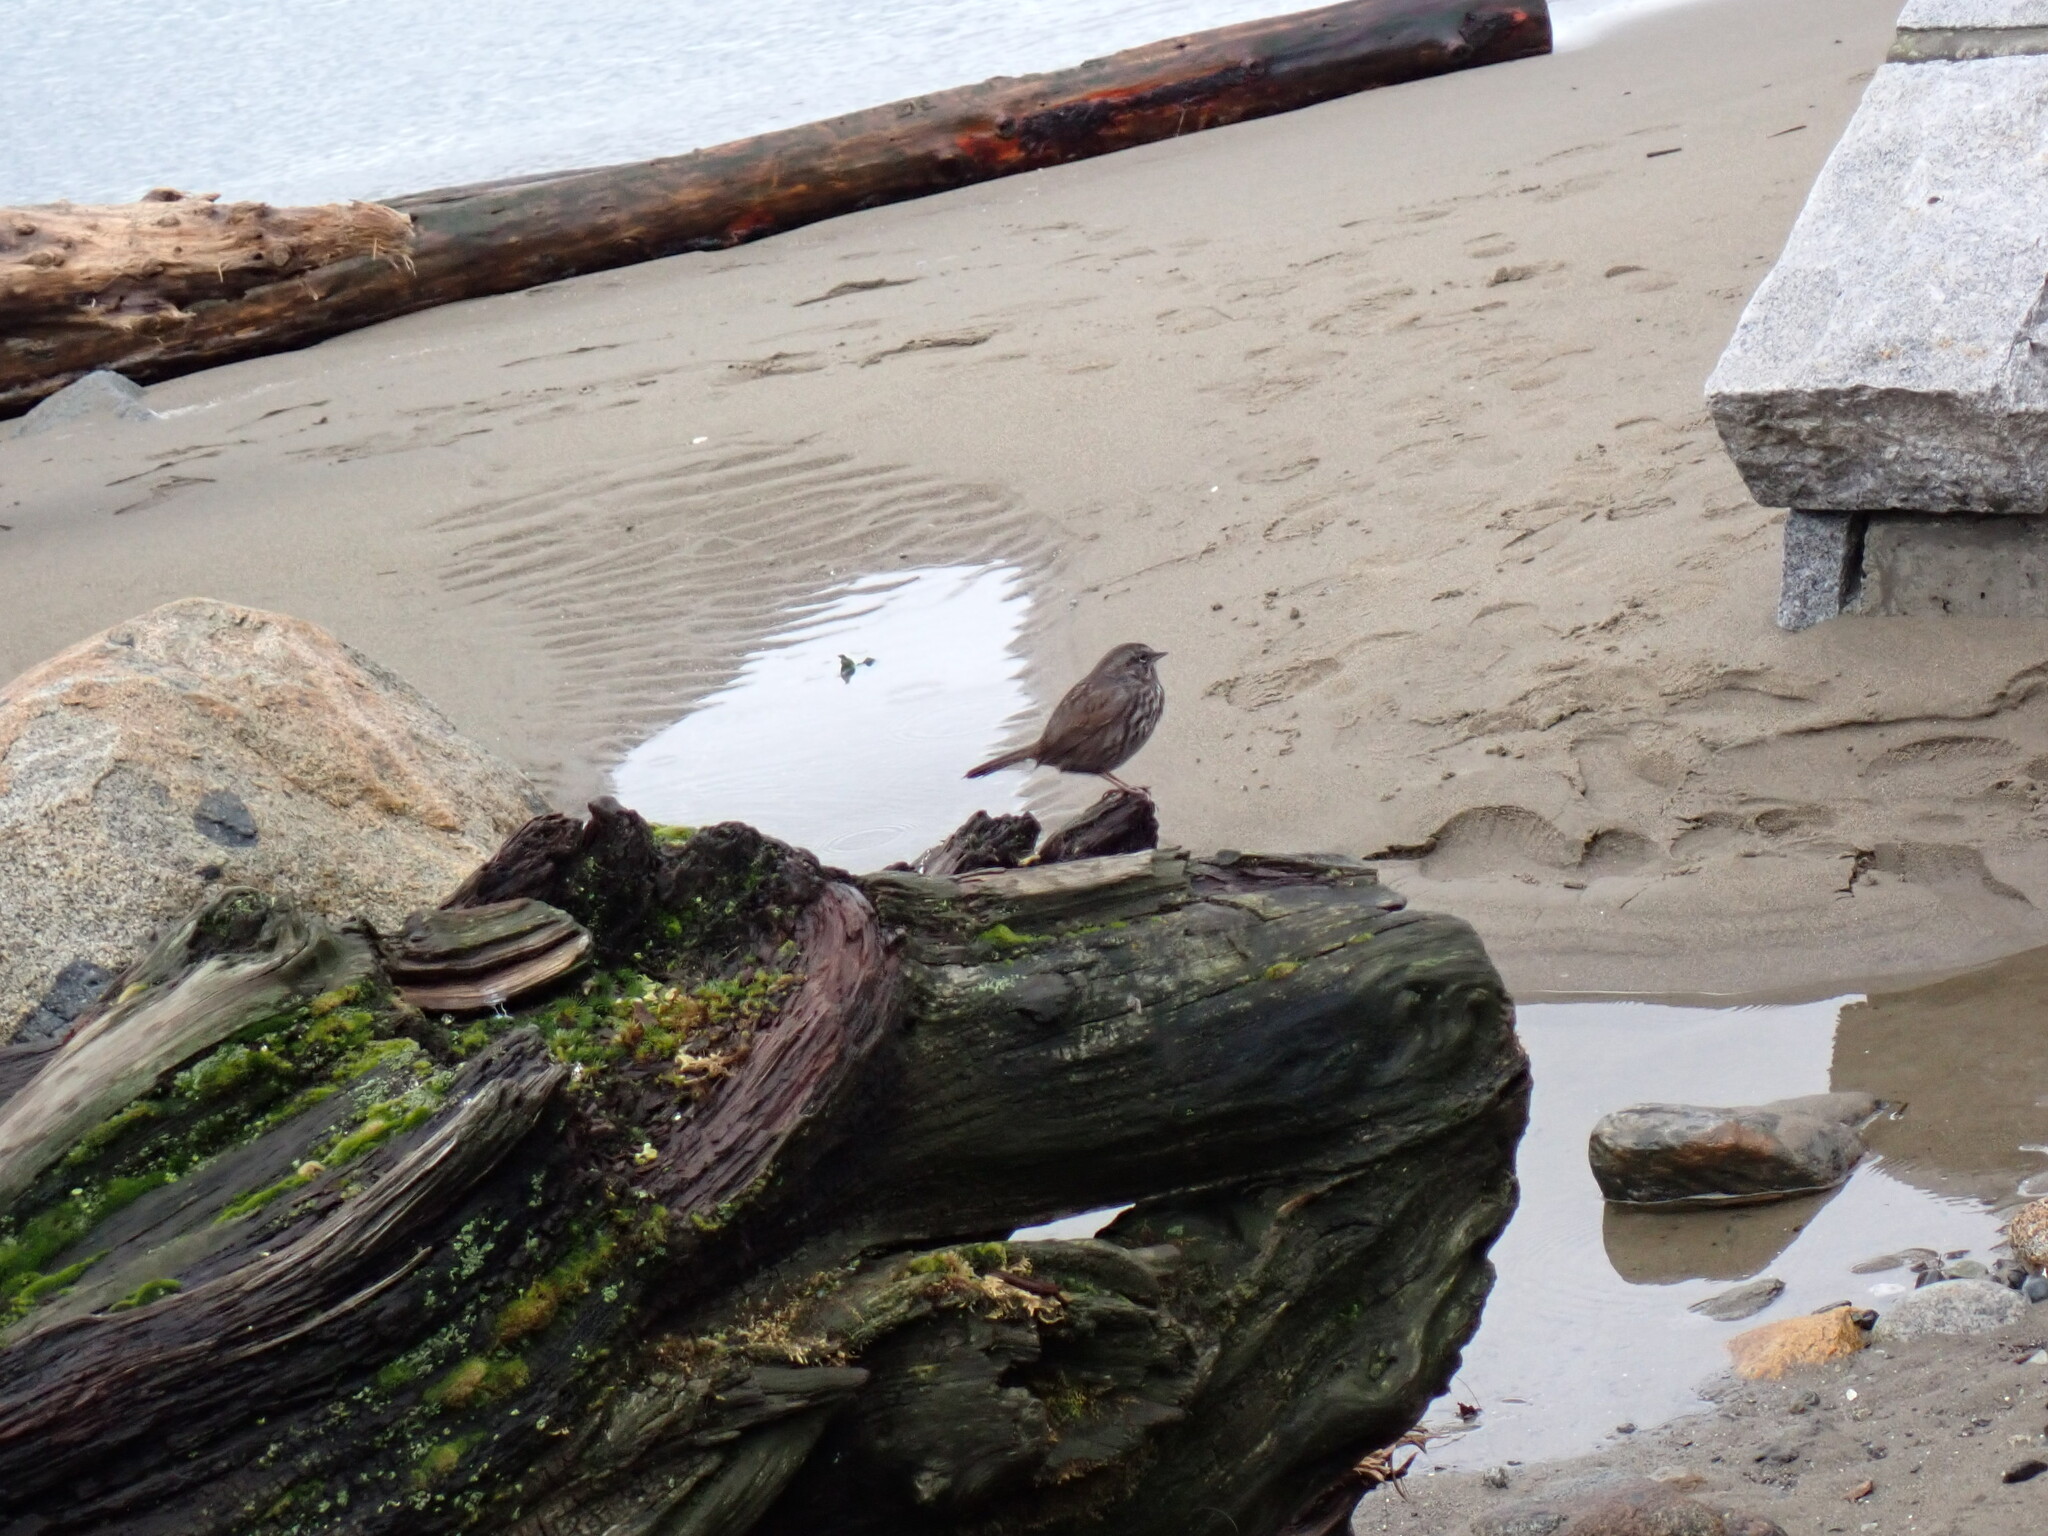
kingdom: Animalia
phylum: Chordata
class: Aves
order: Passeriformes
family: Passerellidae
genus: Melospiza
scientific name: Melospiza melodia
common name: Song sparrow
